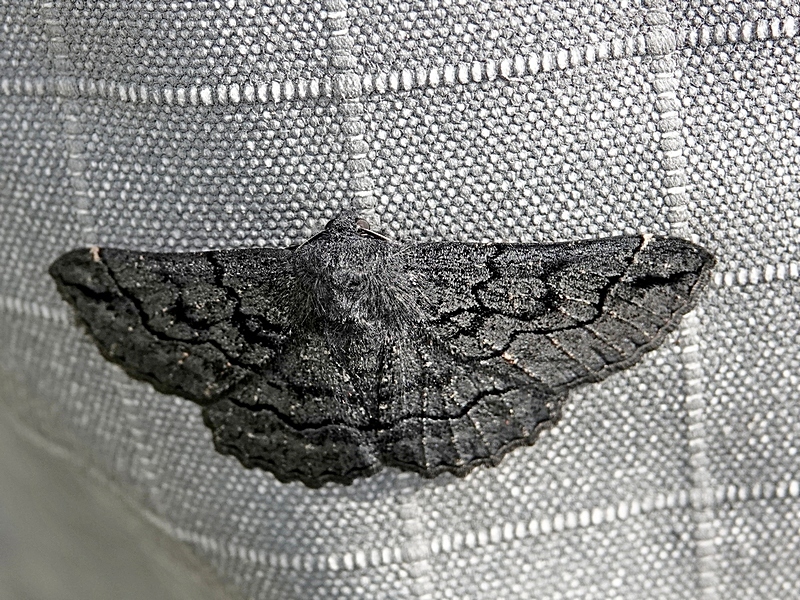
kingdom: Animalia
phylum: Arthropoda
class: Insecta
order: Lepidoptera
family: Geometridae
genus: Melanodes
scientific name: Melanodes anthracitaria
